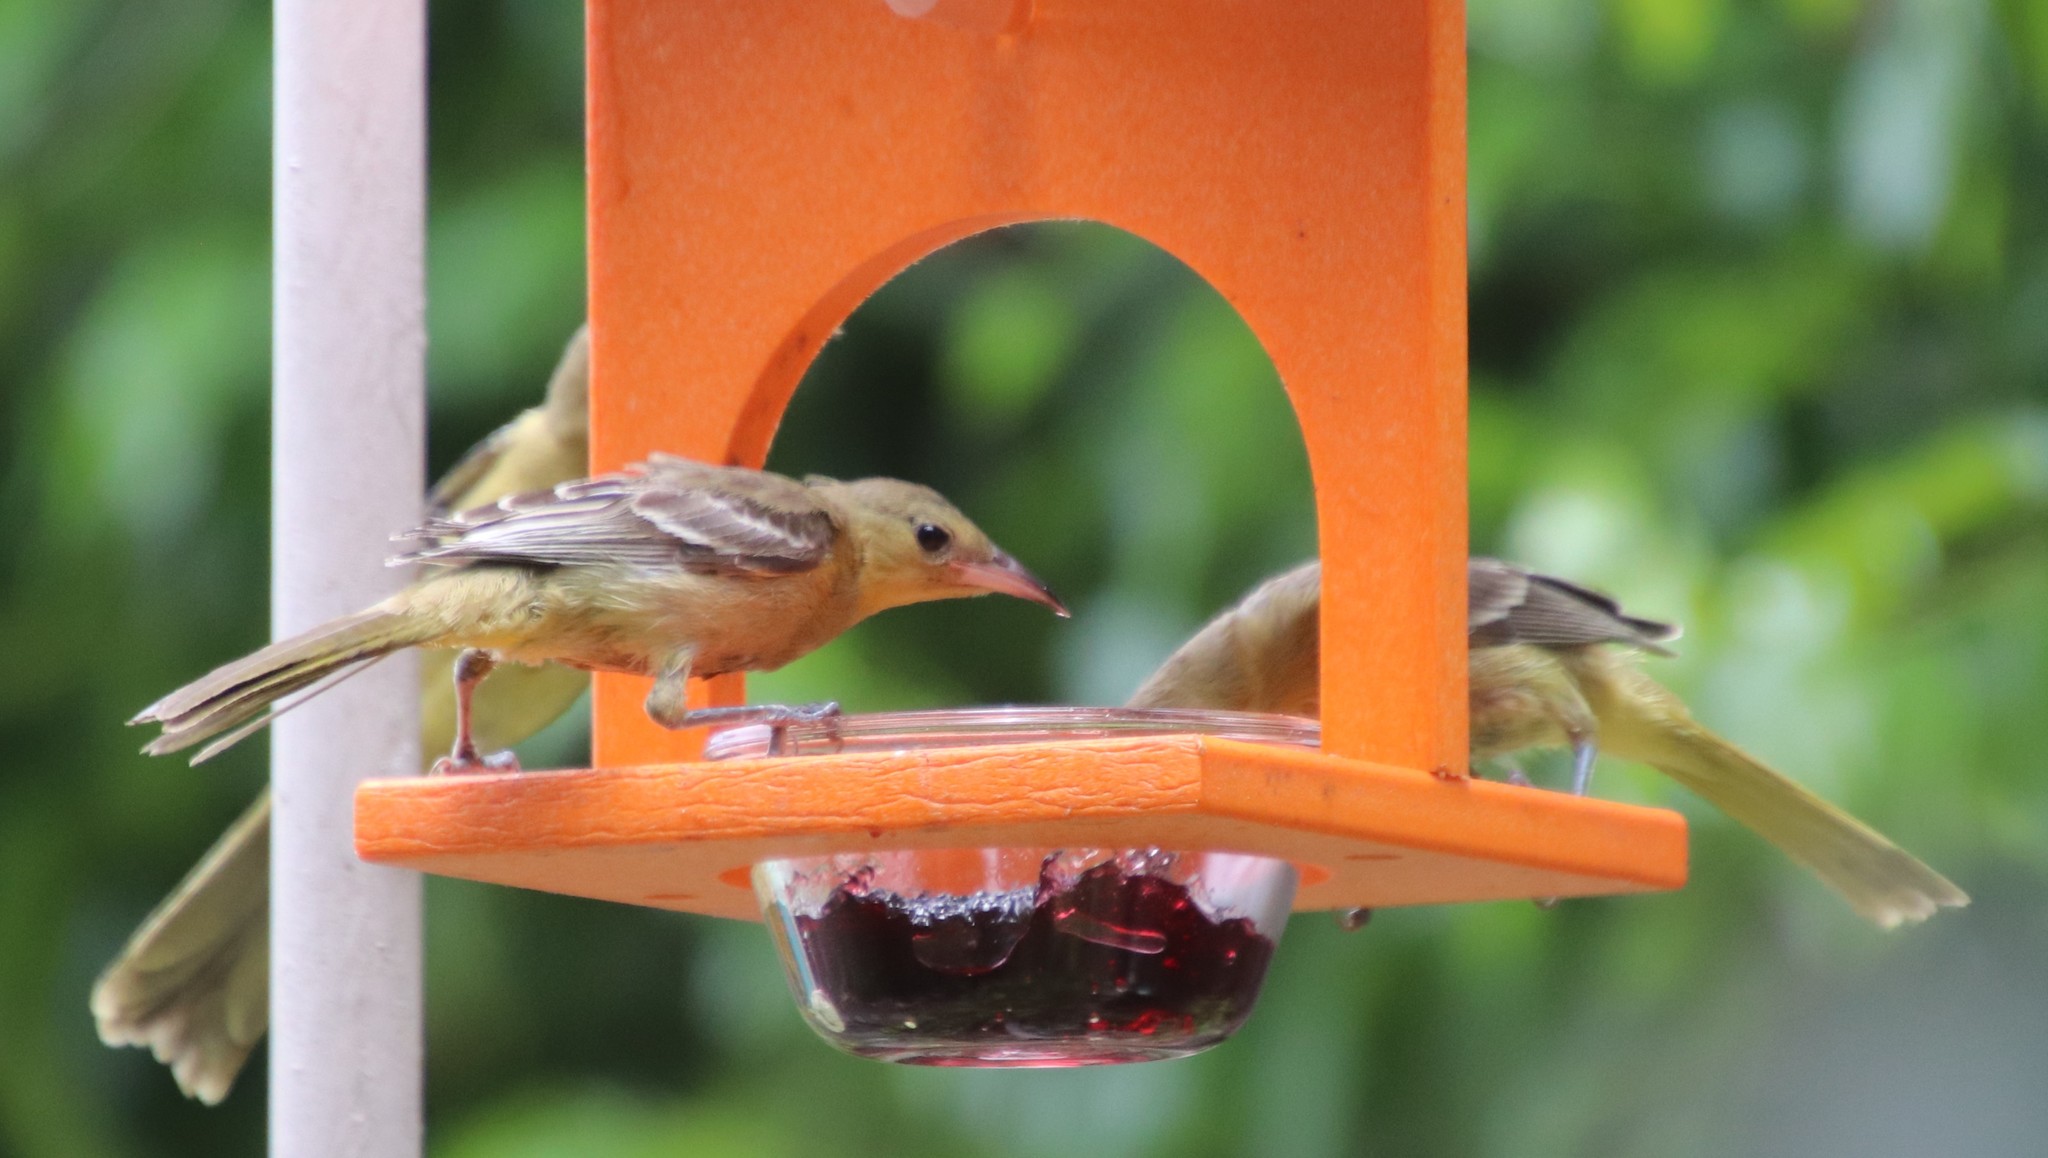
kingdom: Animalia
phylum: Chordata
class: Aves
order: Passeriformes
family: Icteridae
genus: Icterus
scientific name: Icterus cucullatus
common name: Hooded oriole
